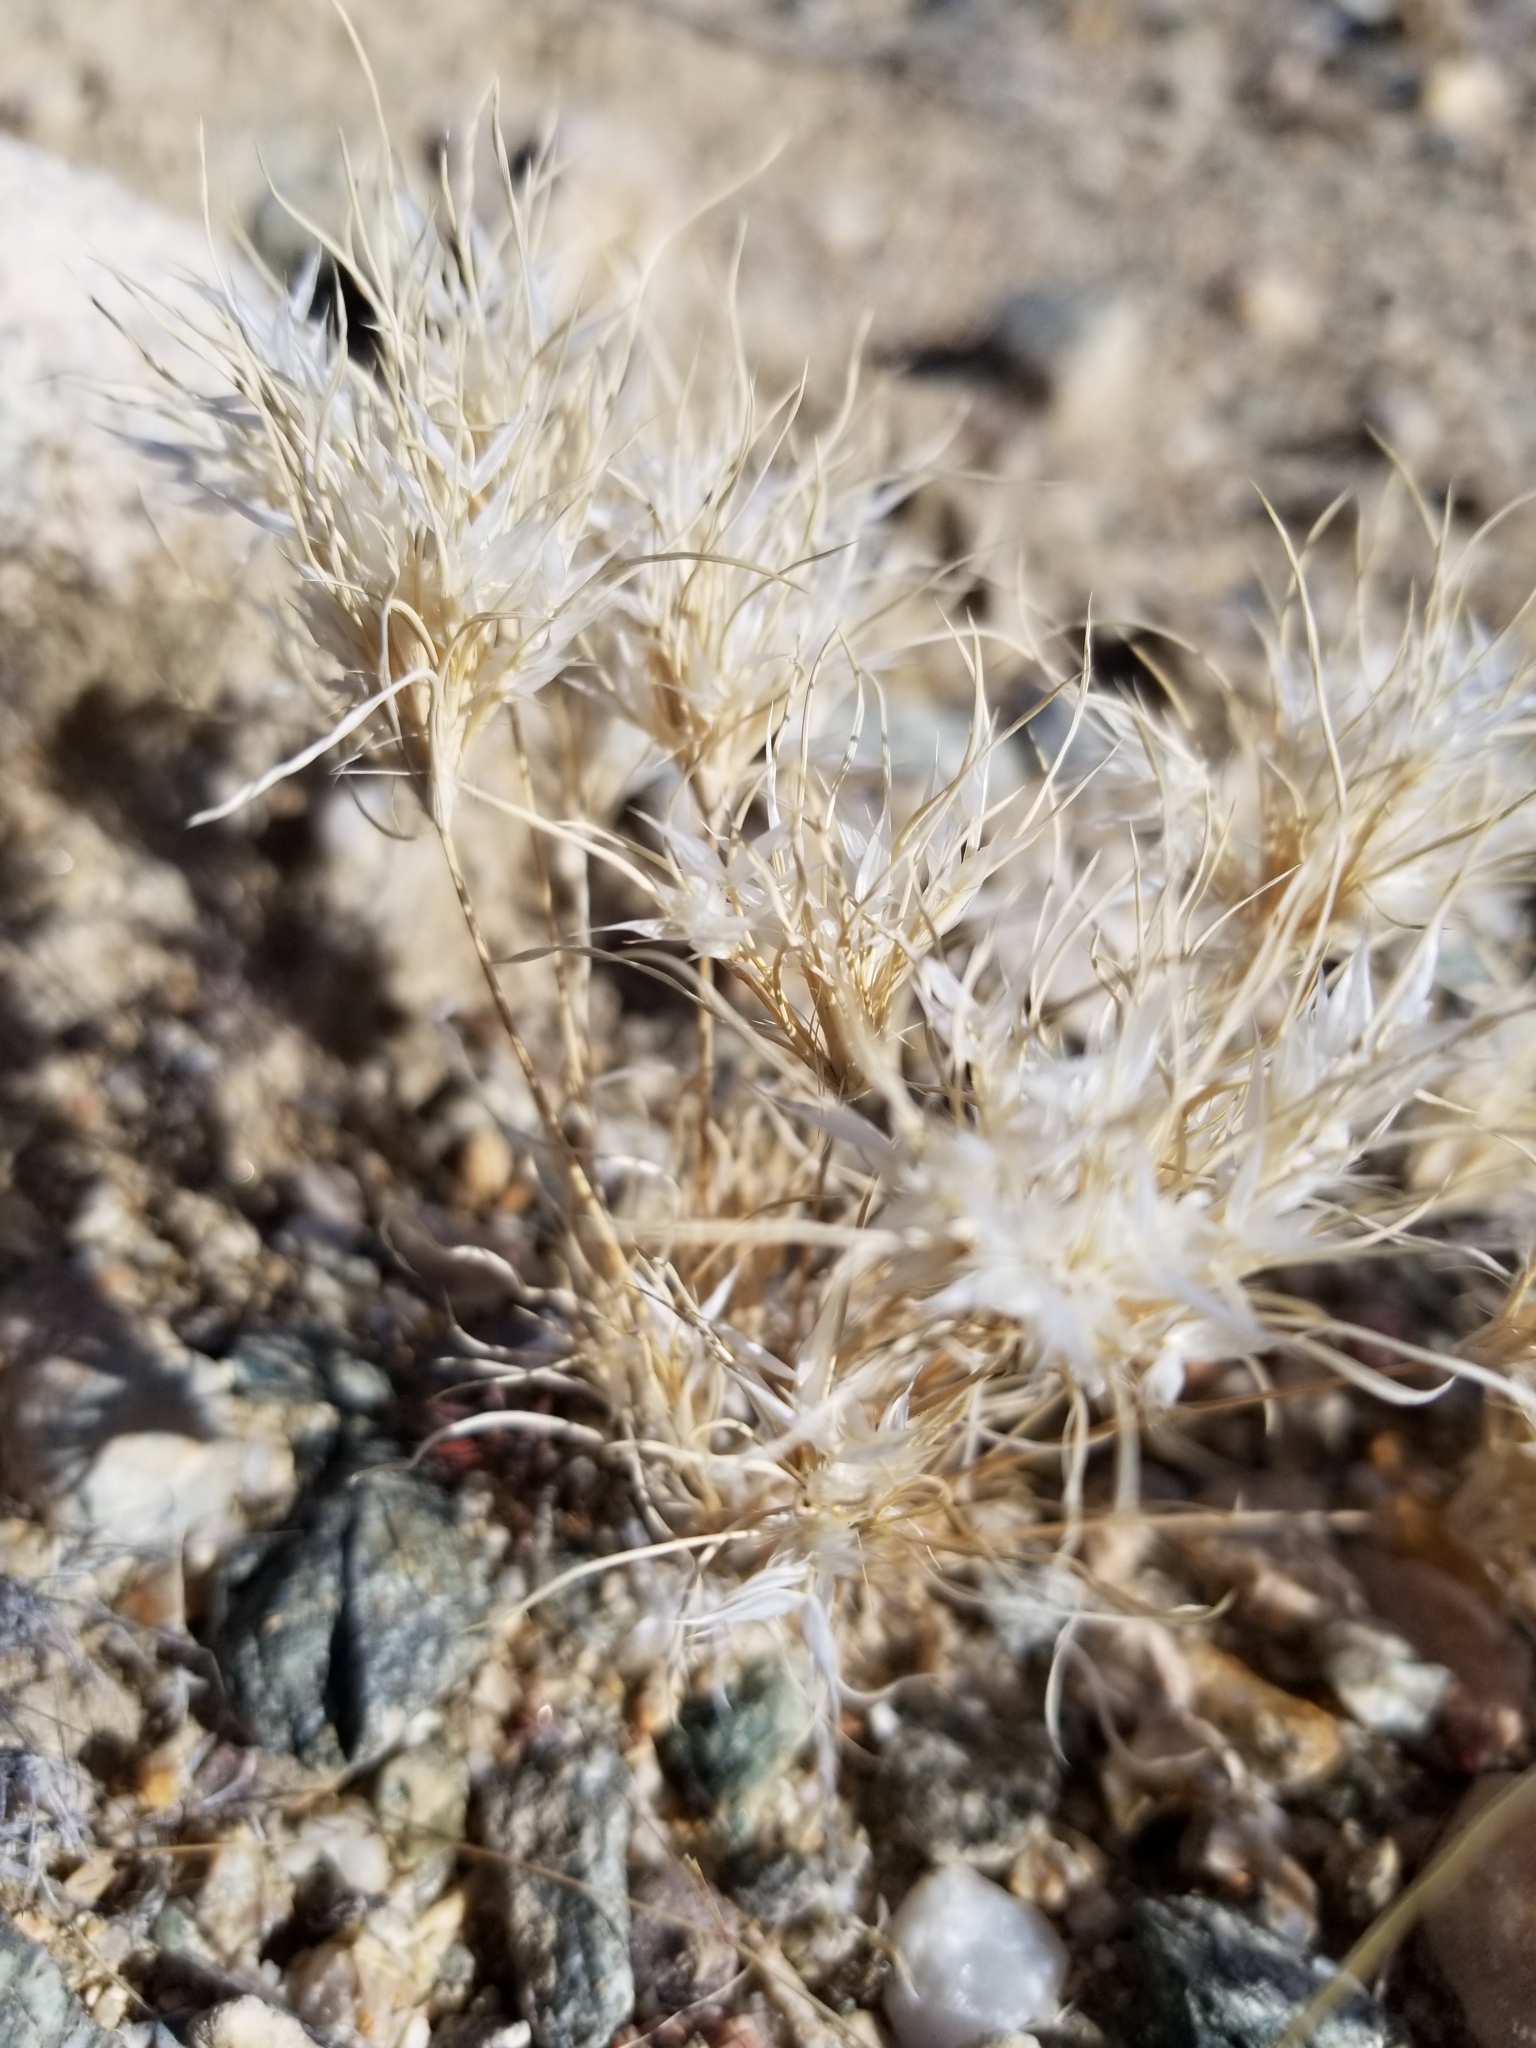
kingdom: Plantae
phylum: Tracheophyta
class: Liliopsida
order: Poales
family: Poaceae
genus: Dasyochloa
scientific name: Dasyochloa pulchella
